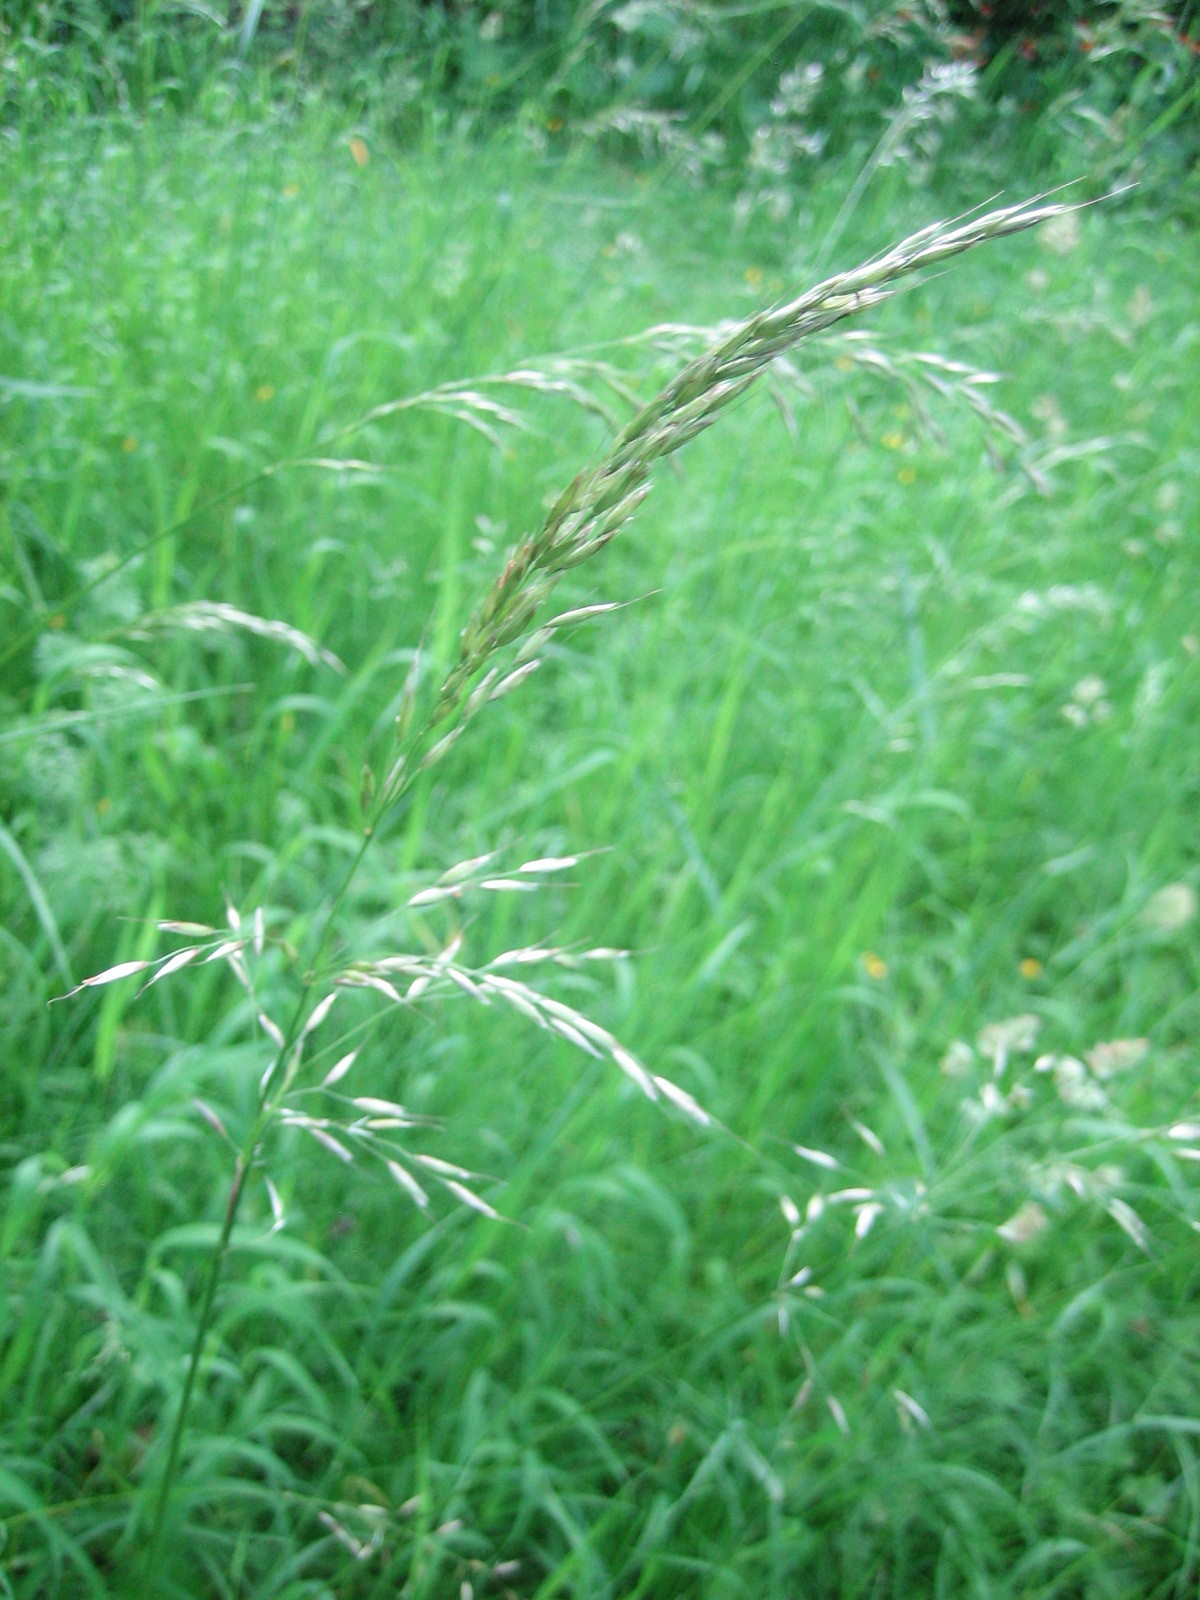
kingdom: Plantae
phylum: Tracheophyta
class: Liliopsida
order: Poales
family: Poaceae
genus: Arrhenatherum
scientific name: Arrhenatherum elatius
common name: Tall oatgrass
